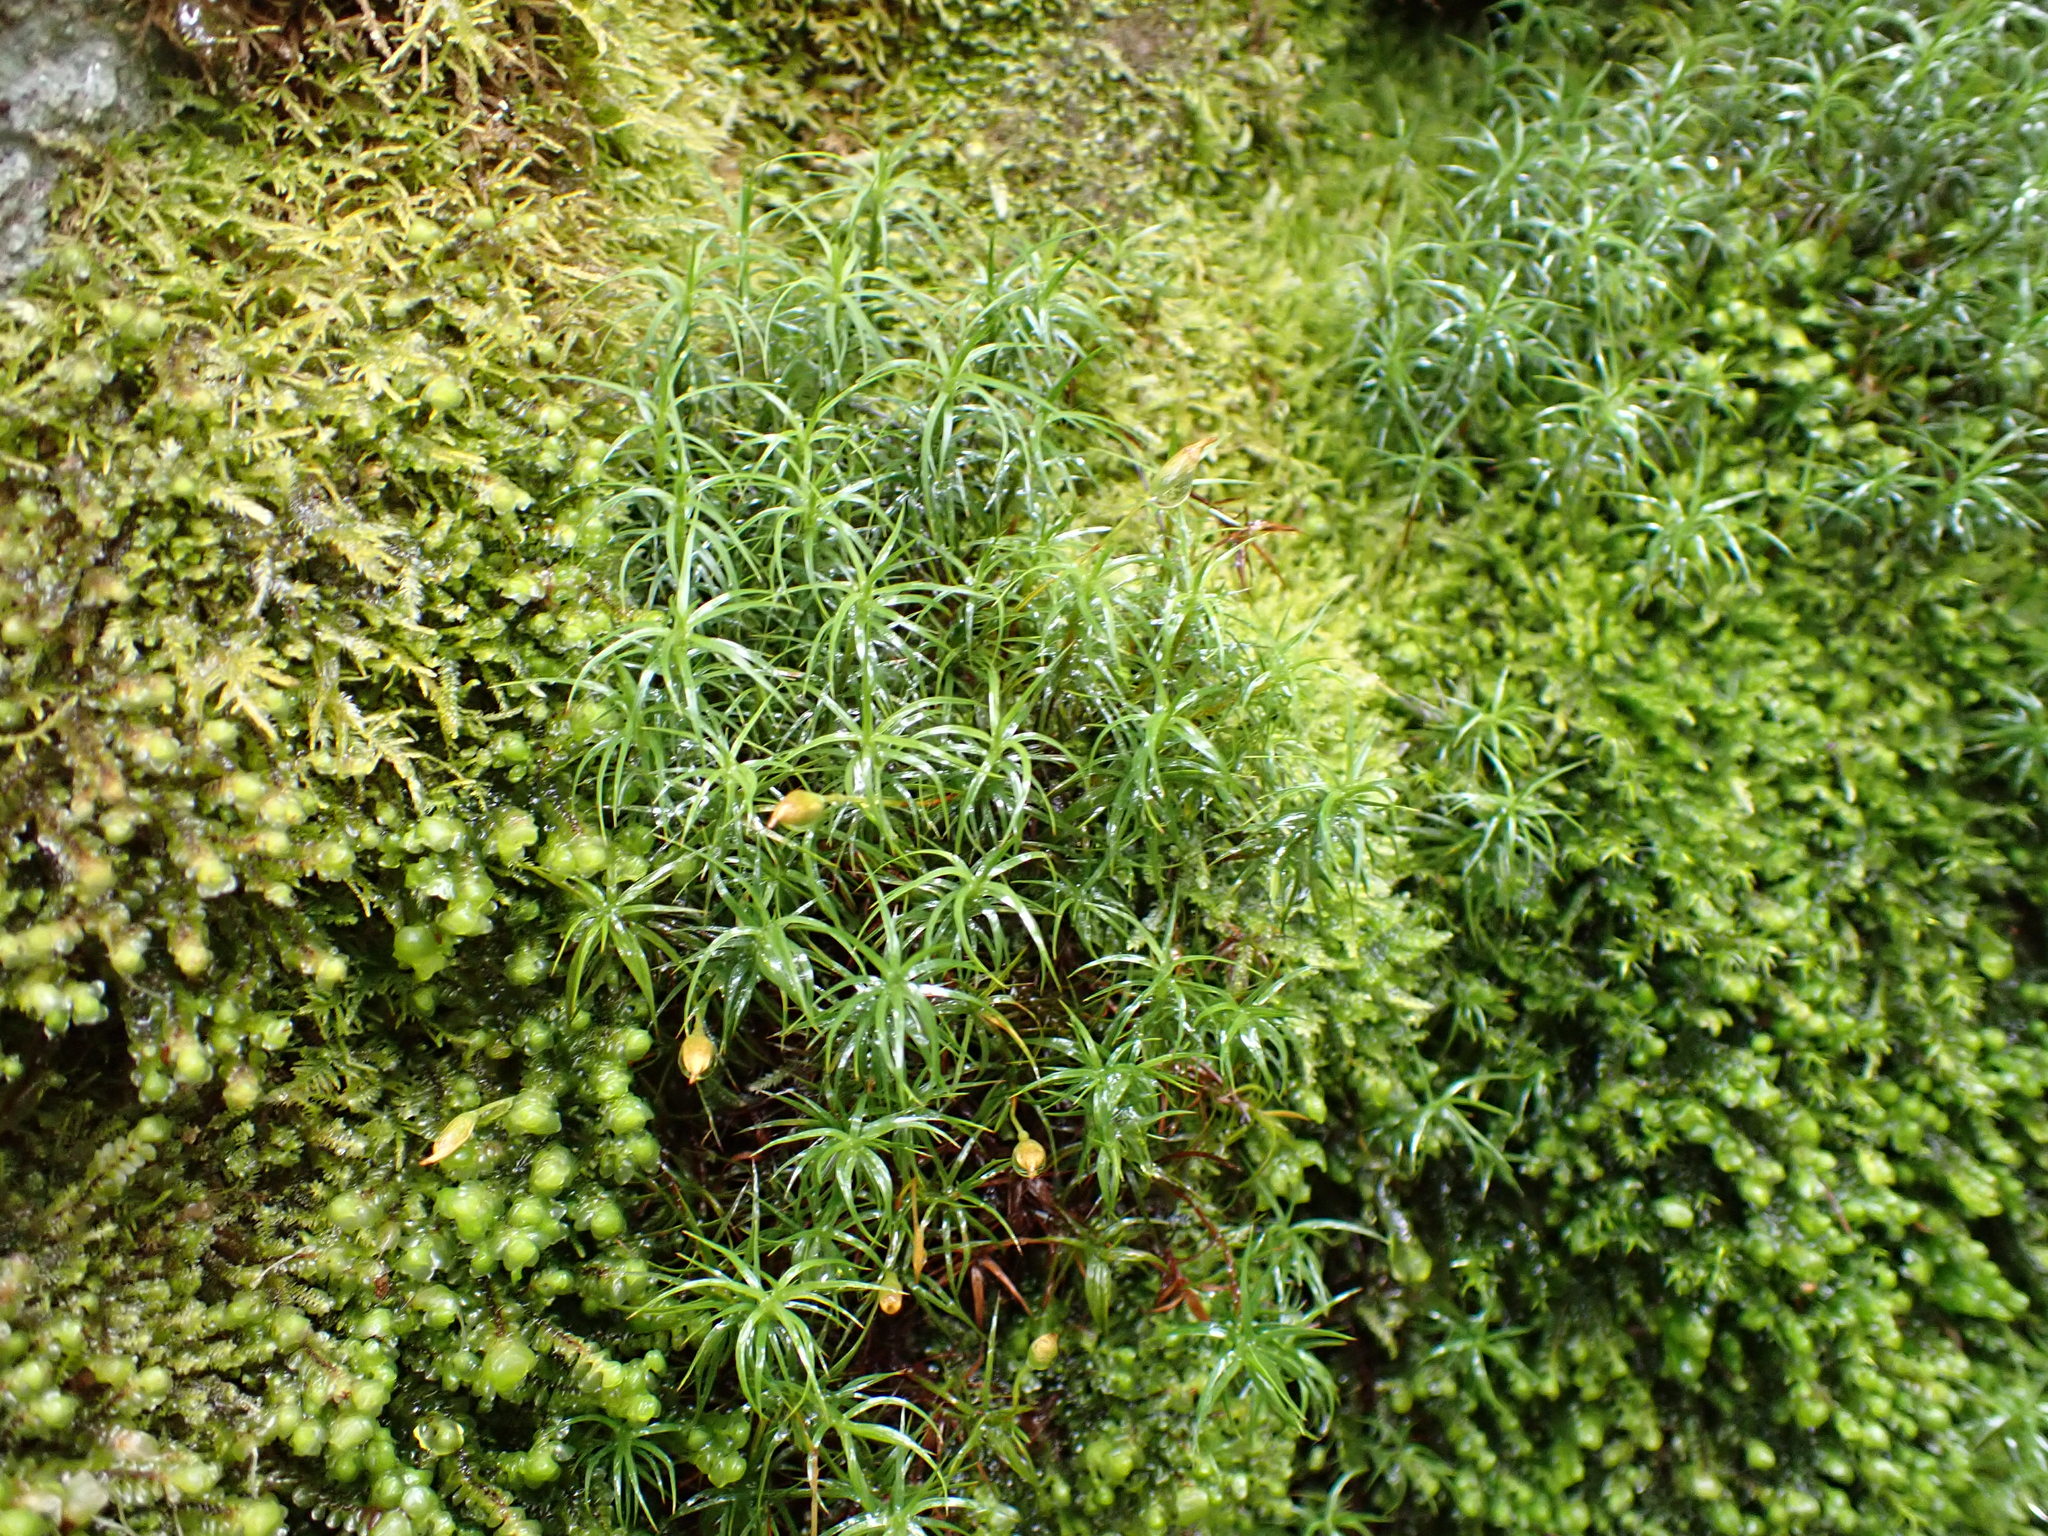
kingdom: Plantae
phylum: Bryophyta
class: Polytrichopsida
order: Polytrichales
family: Polytrichaceae
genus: Polytrichastrum
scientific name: Polytrichastrum alpinum
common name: Alpine haircap
